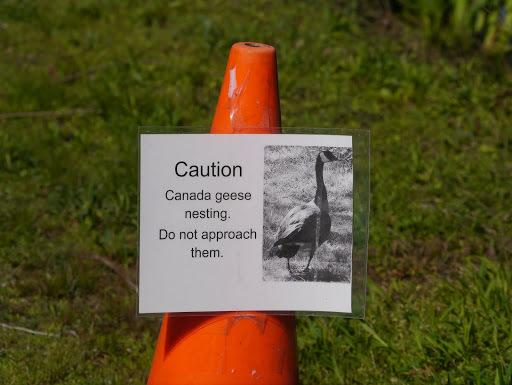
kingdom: Animalia
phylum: Chordata
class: Aves
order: Anseriformes
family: Anatidae
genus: Branta
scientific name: Branta canadensis
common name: Canada goose
